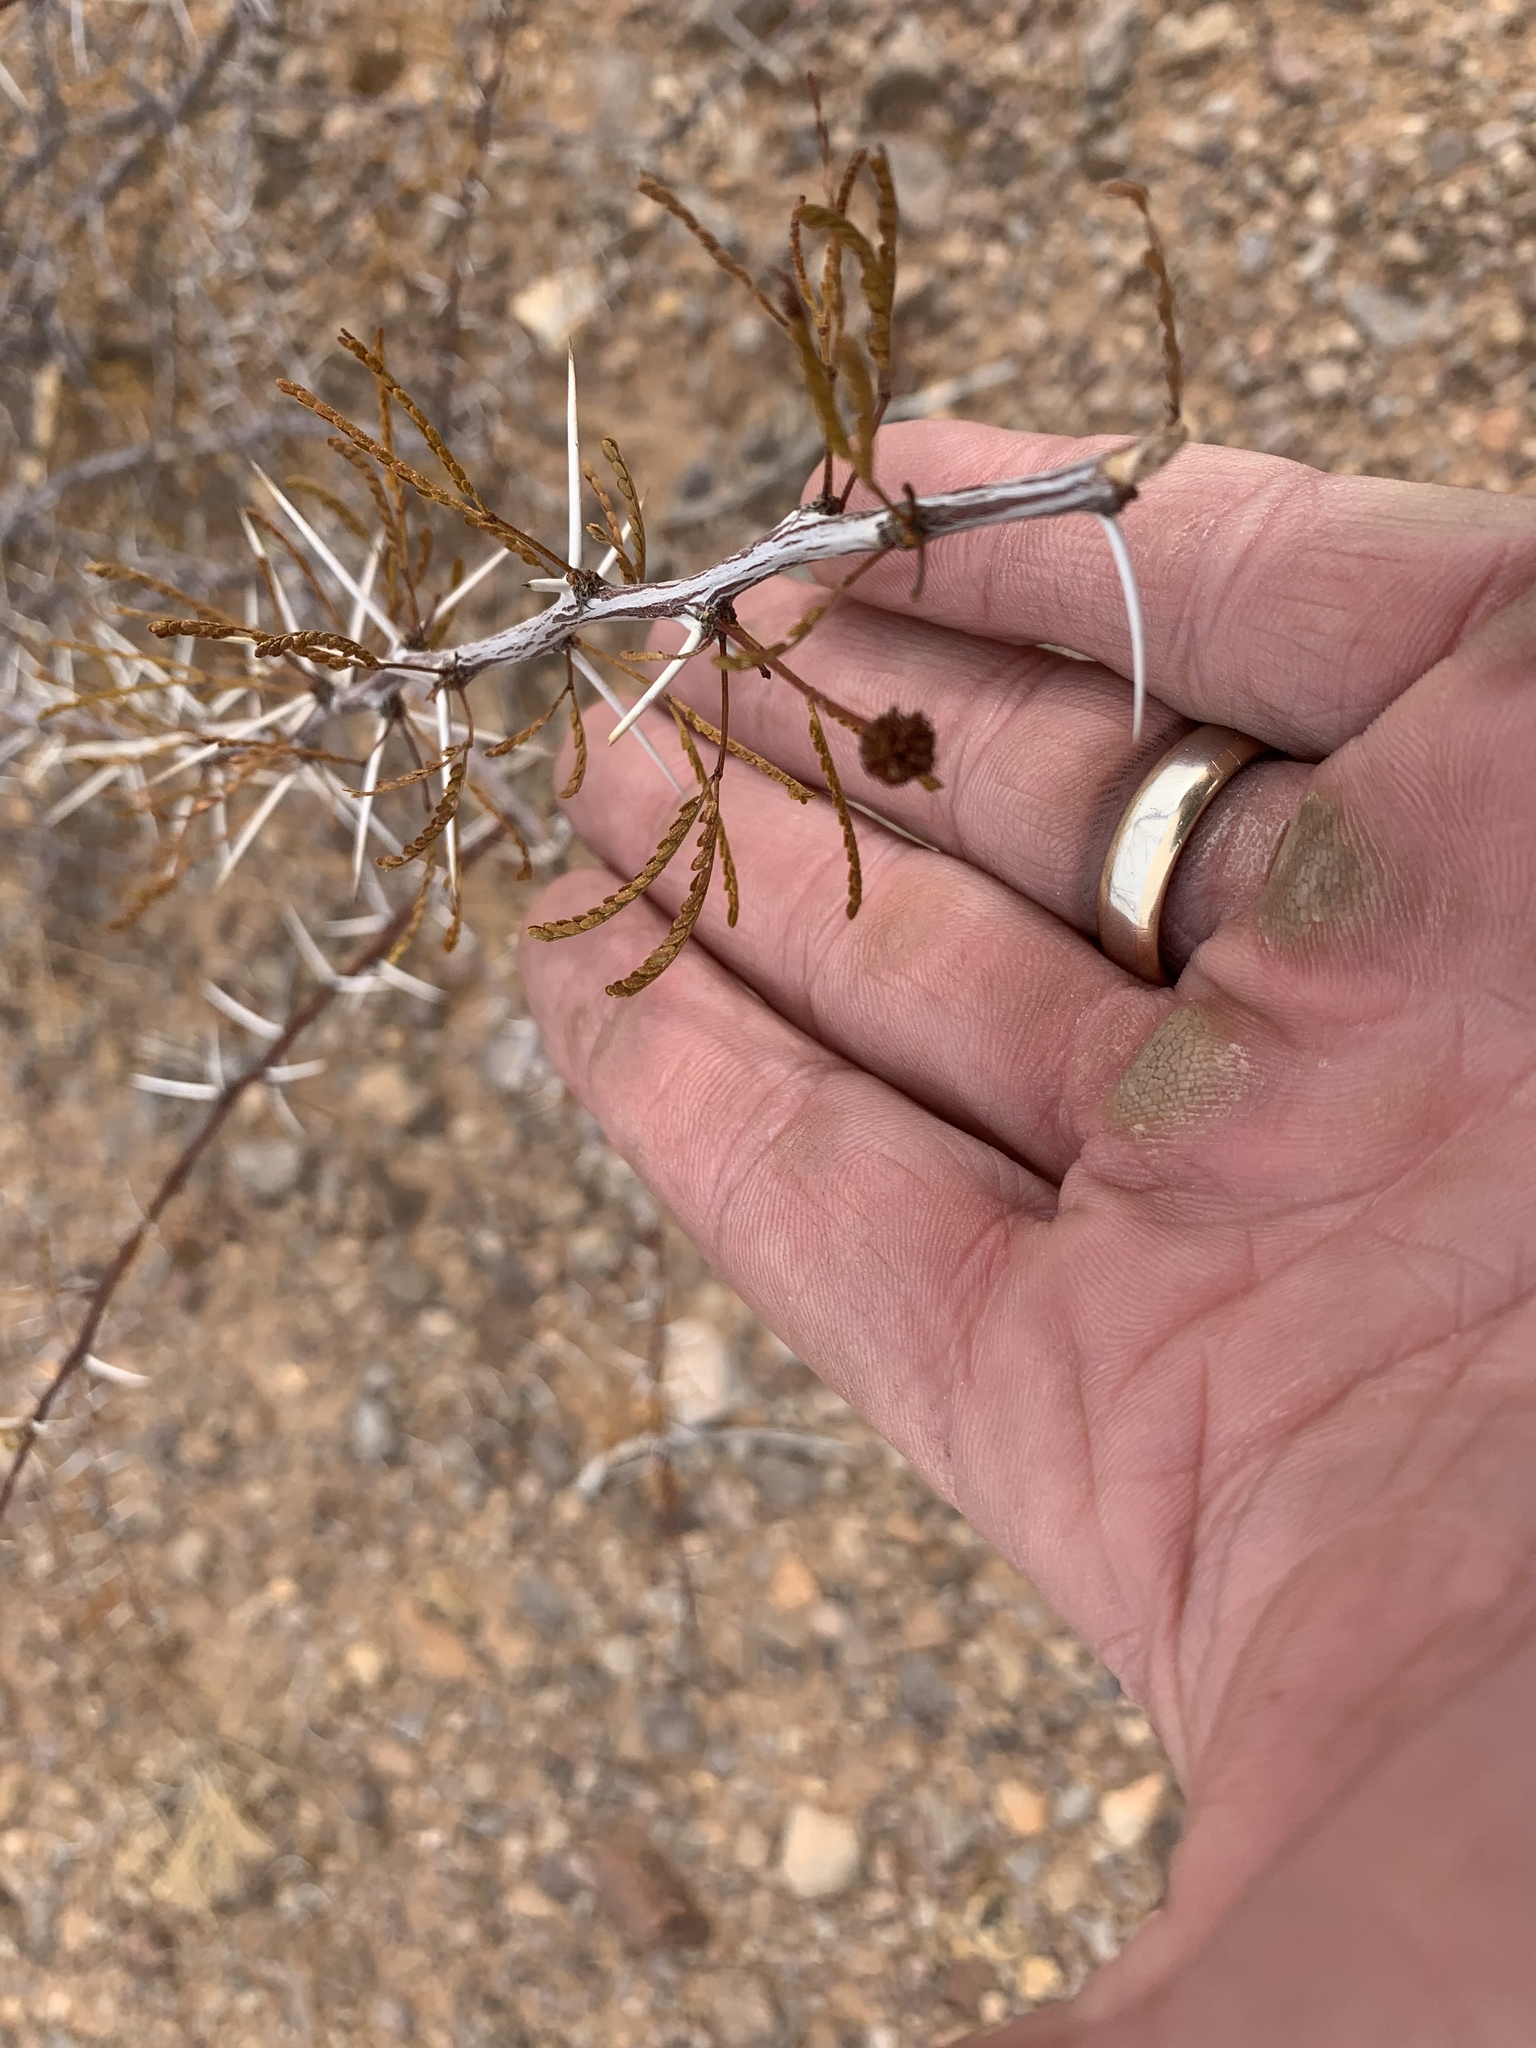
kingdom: Plantae
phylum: Tracheophyta
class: Magnoliopsida
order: Fabales
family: Fabaceae
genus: Vachellia
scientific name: Vachellia vernicosa
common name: Viscid acacia
